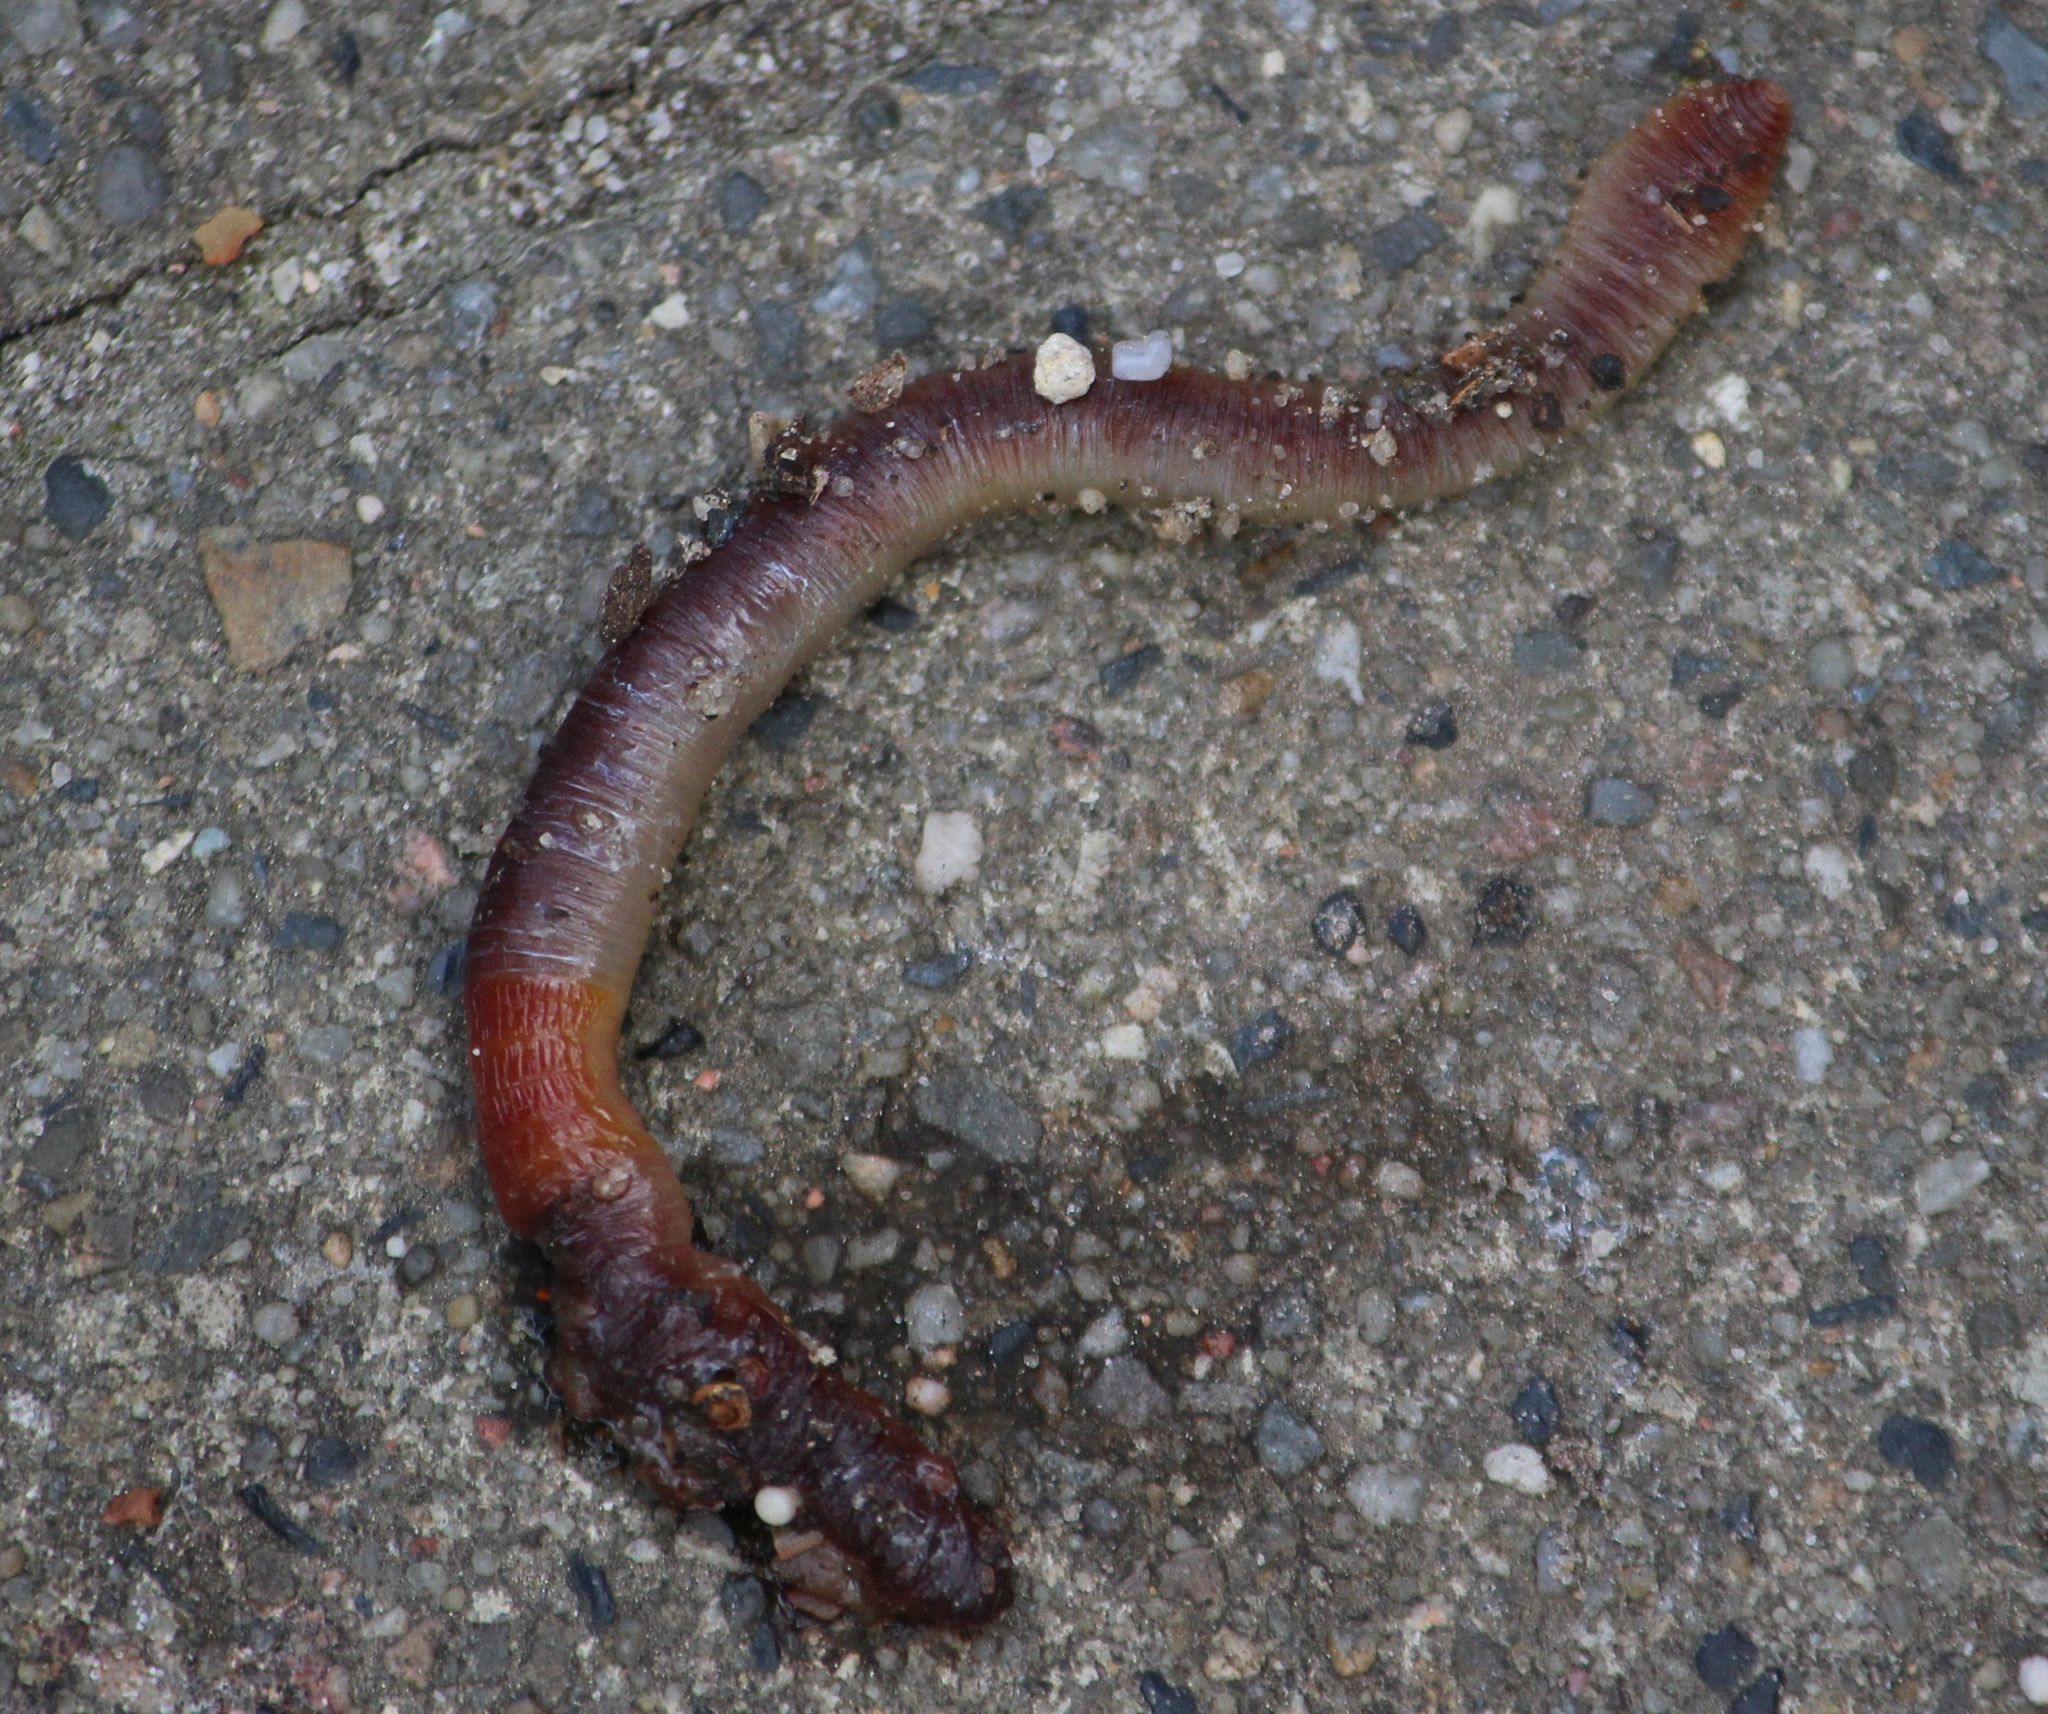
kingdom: Animalia
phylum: Annelida
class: Clitellata
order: Crassiclitellata
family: Lumbricidae
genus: Lumbricus
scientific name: Lumbricus terrestris
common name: Common earthworm
